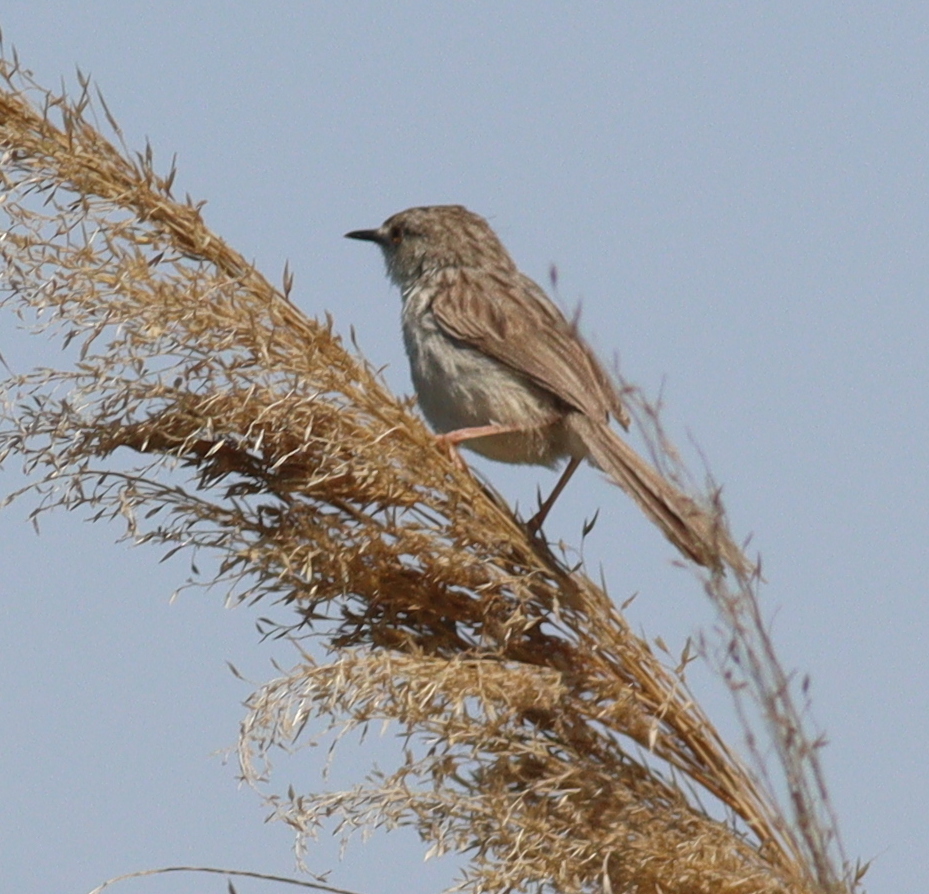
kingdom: Animalia
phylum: Chordata
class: Aves
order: Passeriformes
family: Cisticolidae
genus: Prinia
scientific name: Prinia lepida
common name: Delicate prinia
